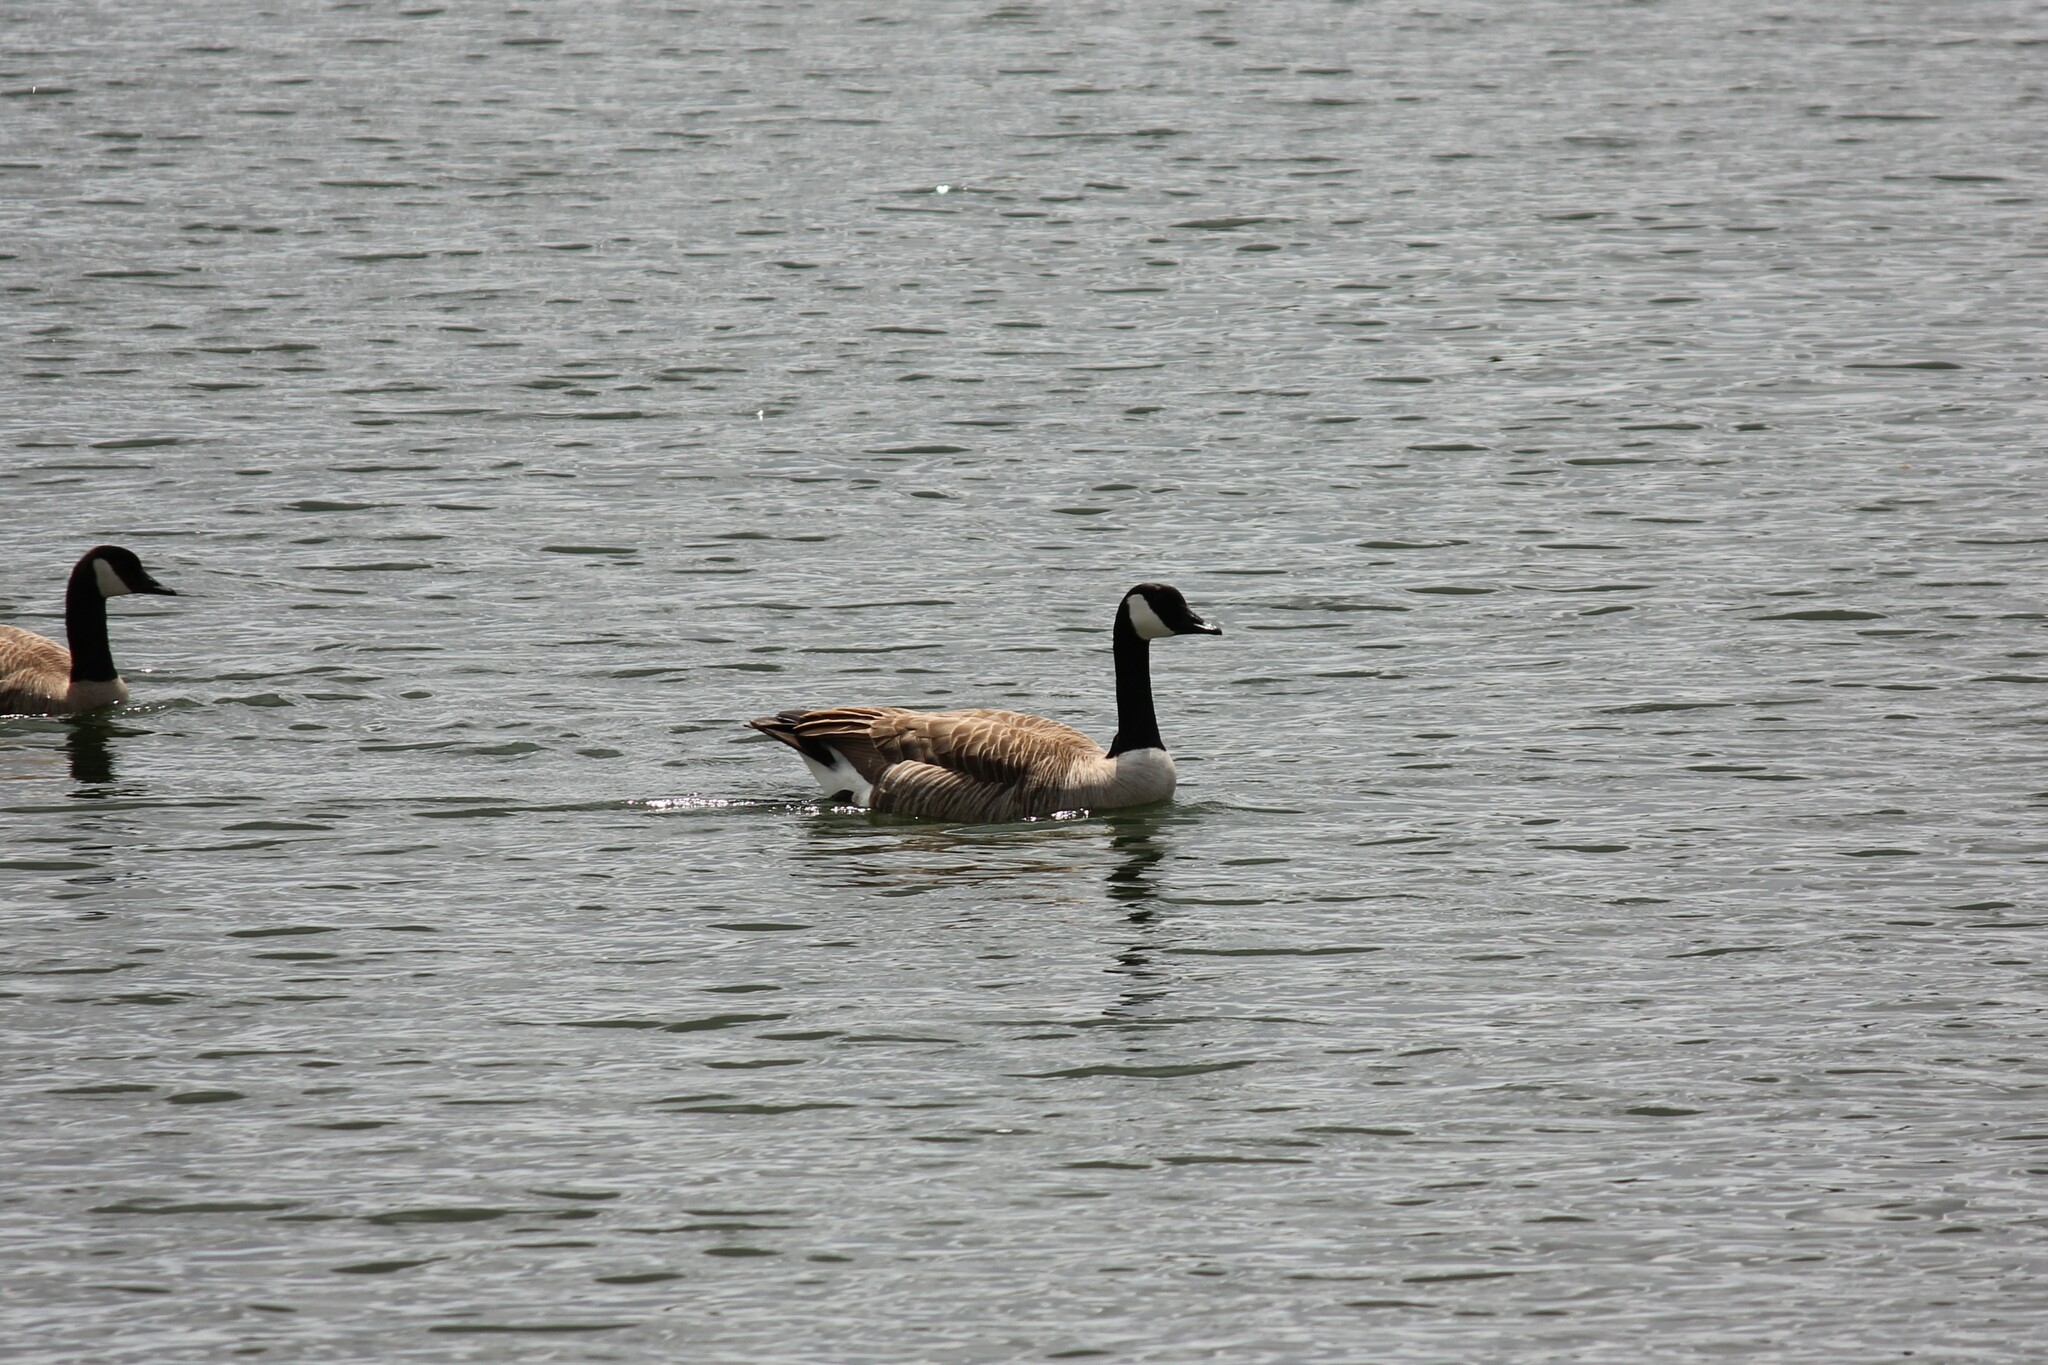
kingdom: Animalia
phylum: Chordata
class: Aves
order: Anseriformes
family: Anatidae
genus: Branta
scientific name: Branta canadensis
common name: Canada goose
